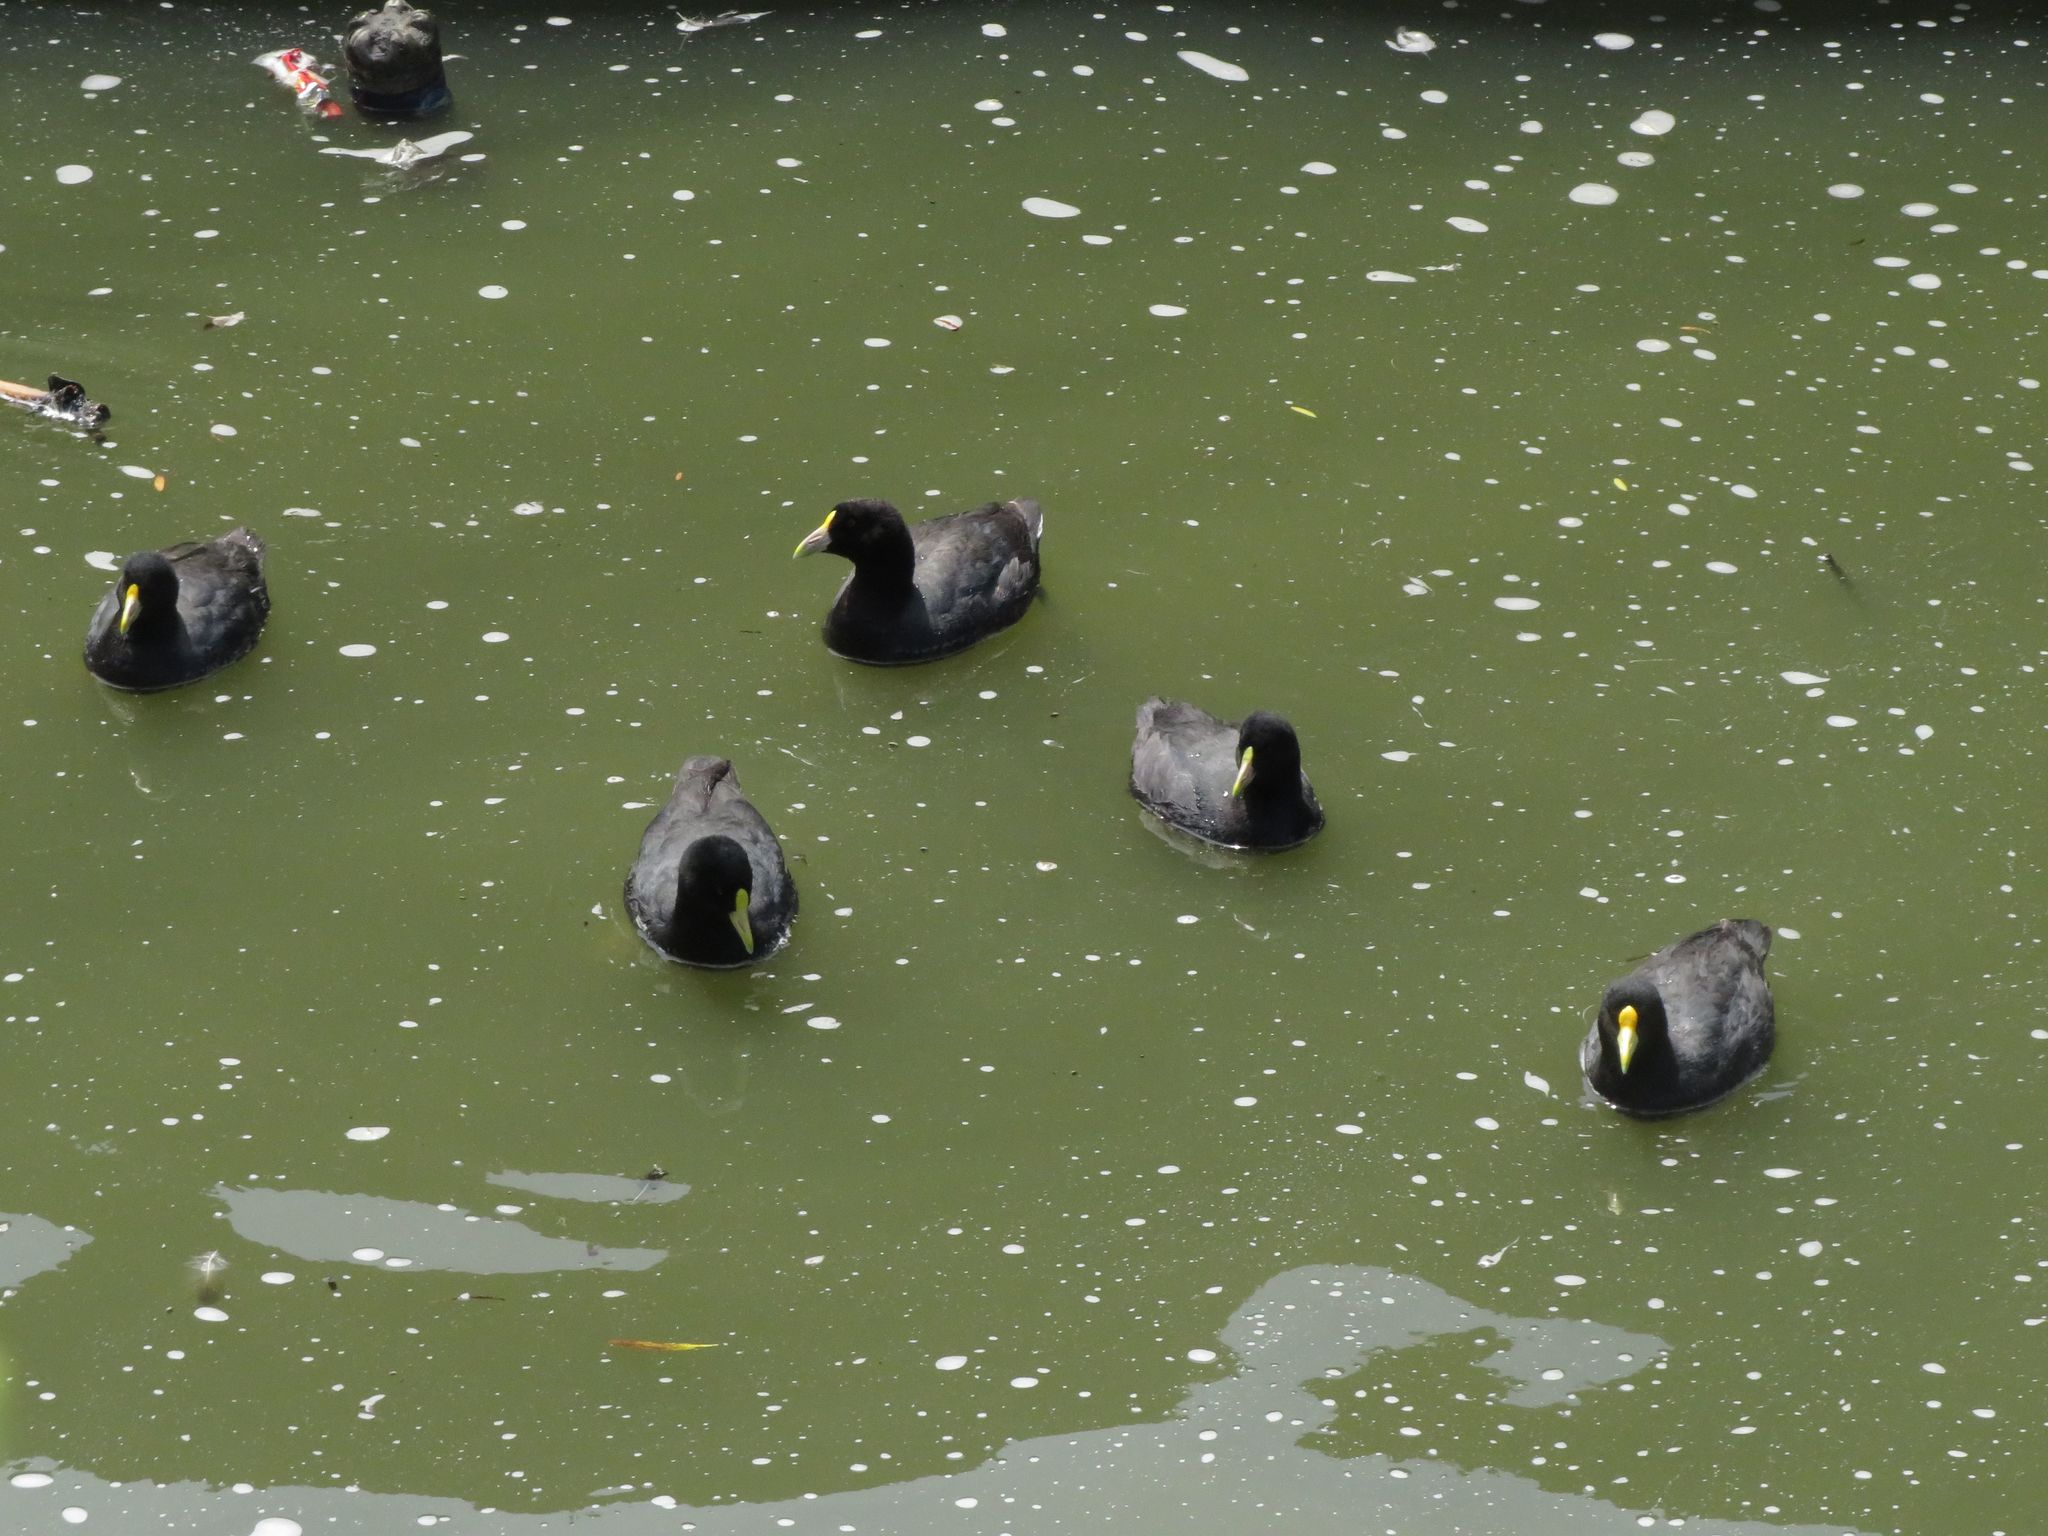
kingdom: Animalia
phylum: Chordata
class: Aves
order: Gruiformes
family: Rallidae
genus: Fulica
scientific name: Fulica leucoptera
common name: White-winged coot
